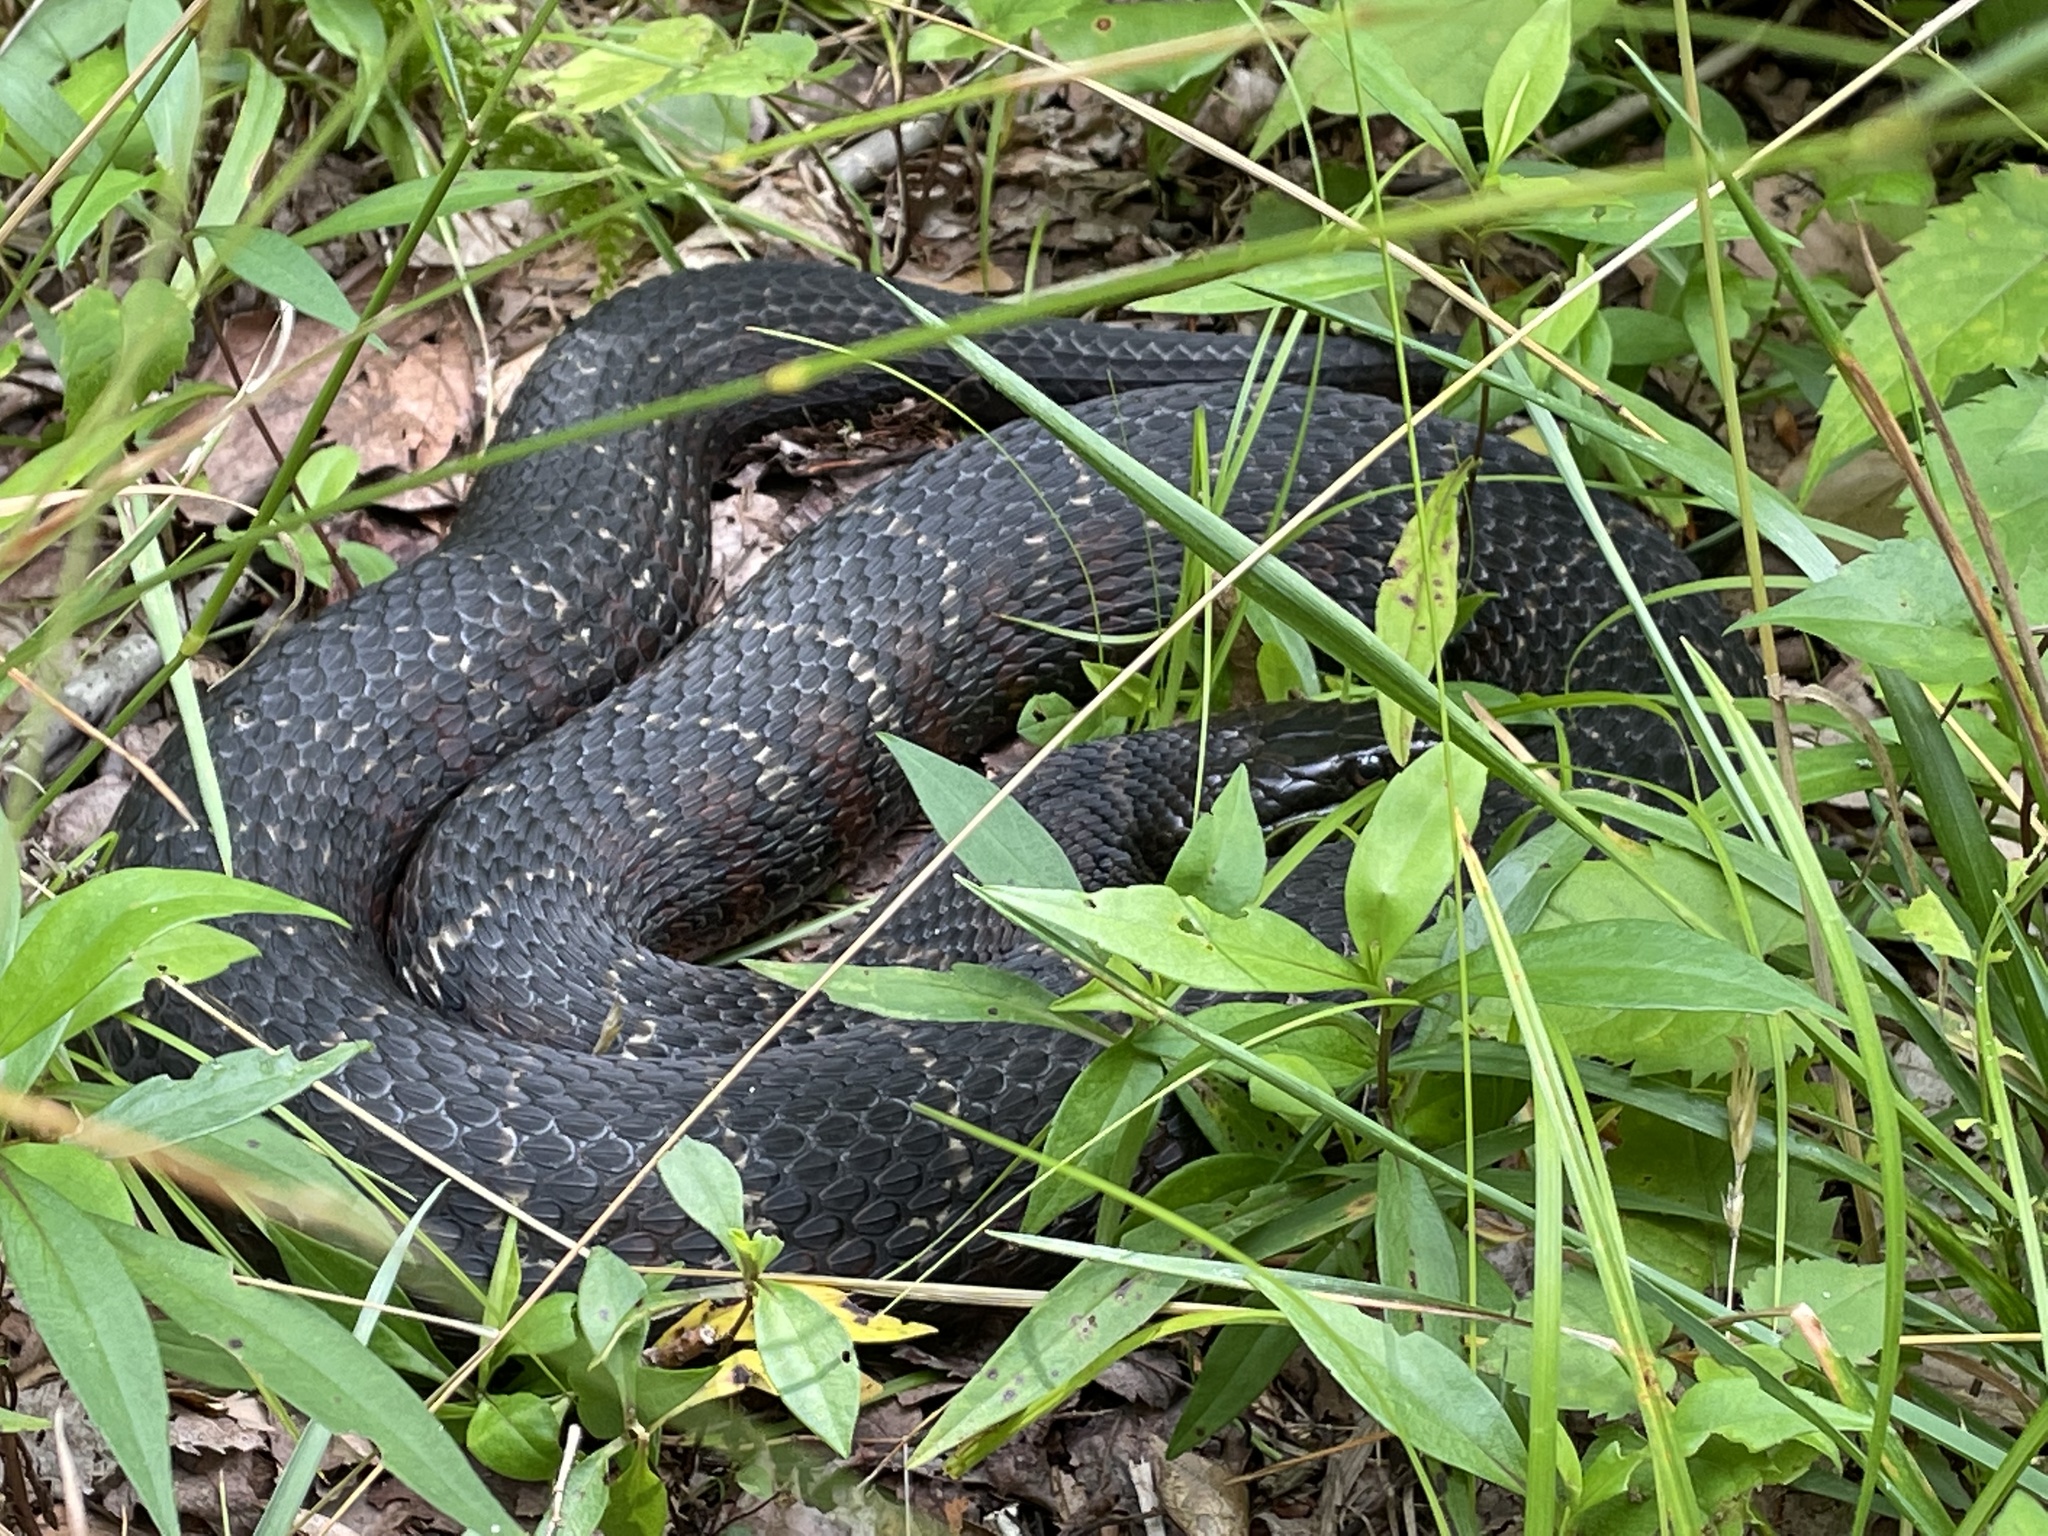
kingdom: Animalia
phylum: Chordata
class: Squamata
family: Colubridae
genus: Nerodia
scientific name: Nerodia sipedon
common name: Northern water snake
